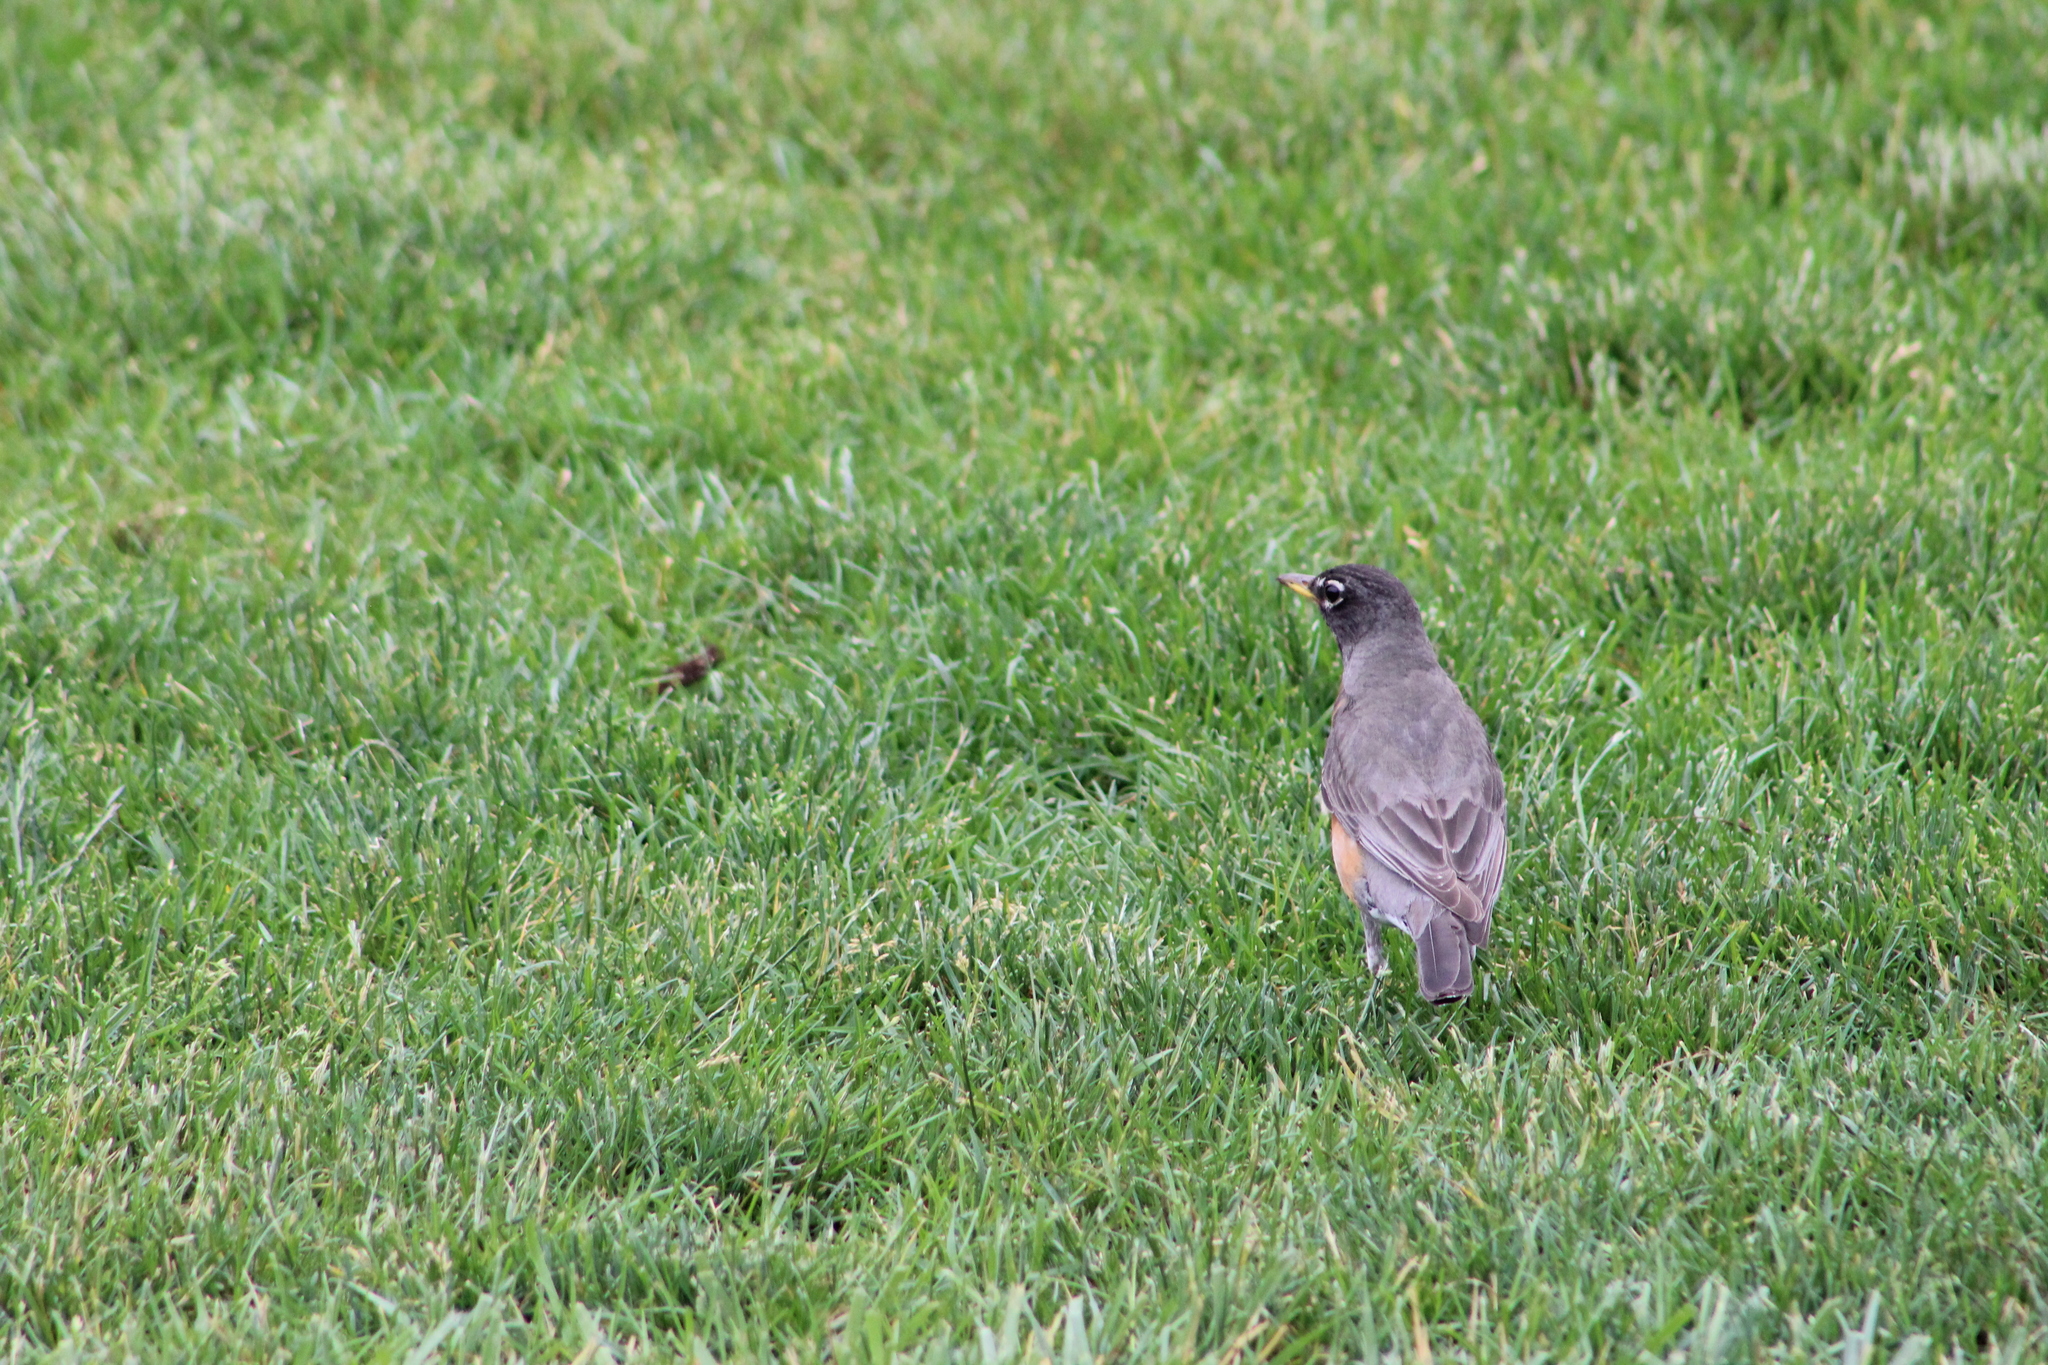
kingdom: Animalia
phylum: Chordata
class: Aves
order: Passeriformes
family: Turdidae
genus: Turdus
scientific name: Turdus migratorius
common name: American robin
